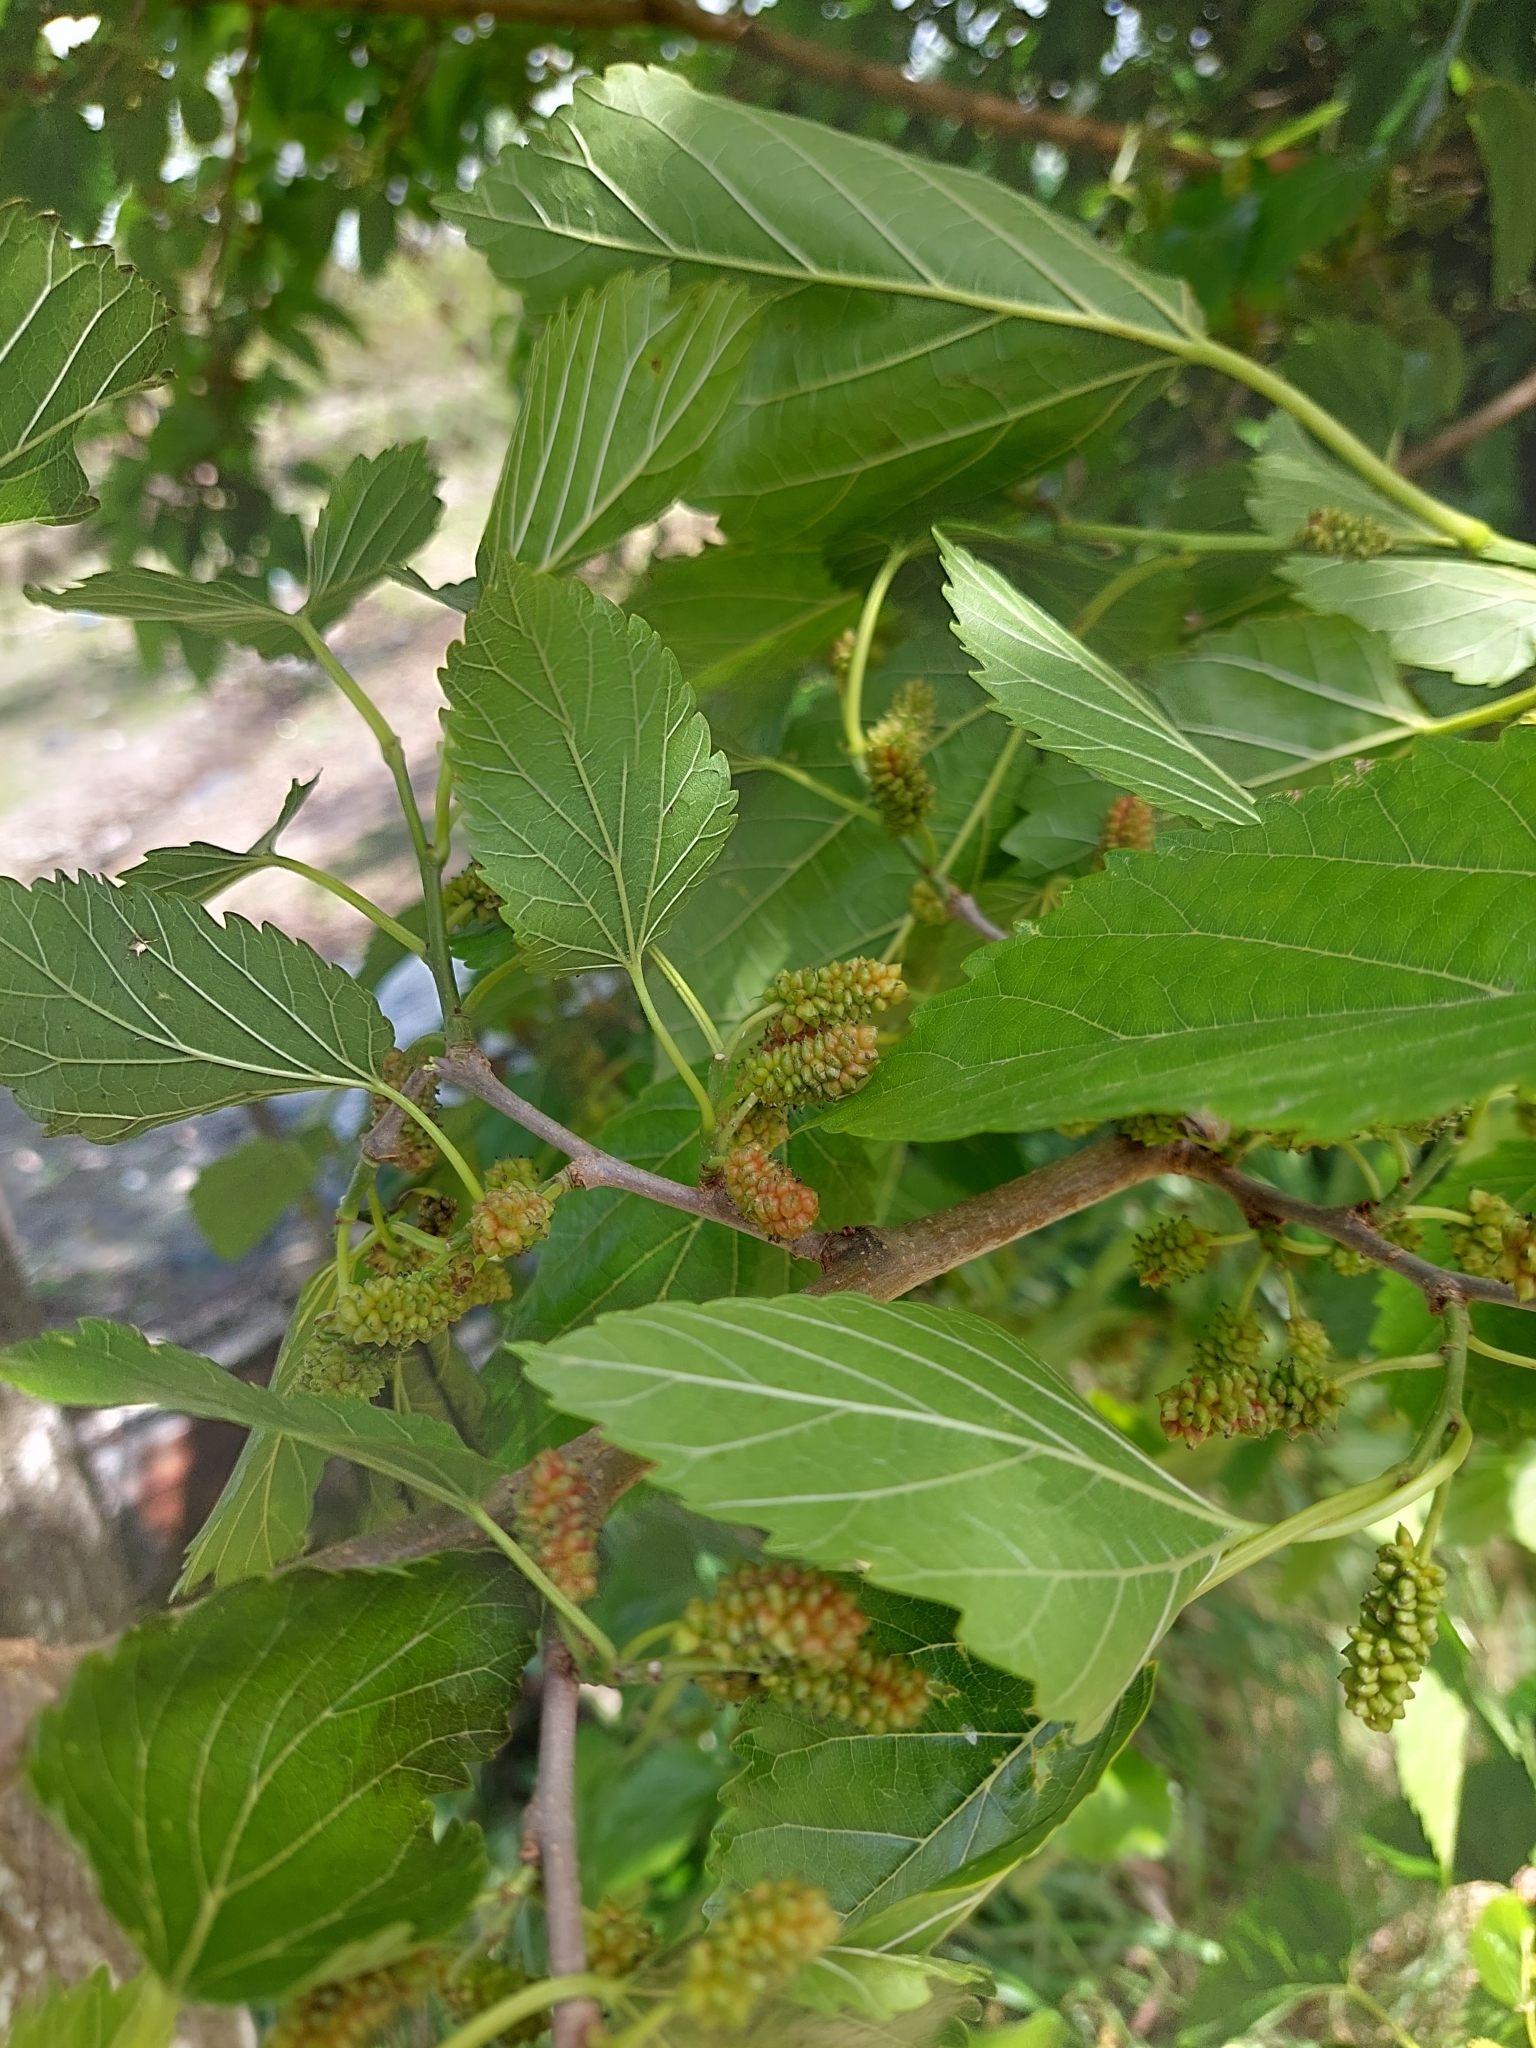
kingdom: Plantae
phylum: Tracheophyta
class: Magnoliopsida
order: Rosales
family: Moraceae
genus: Morus
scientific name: Morus alba
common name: White mulberry
